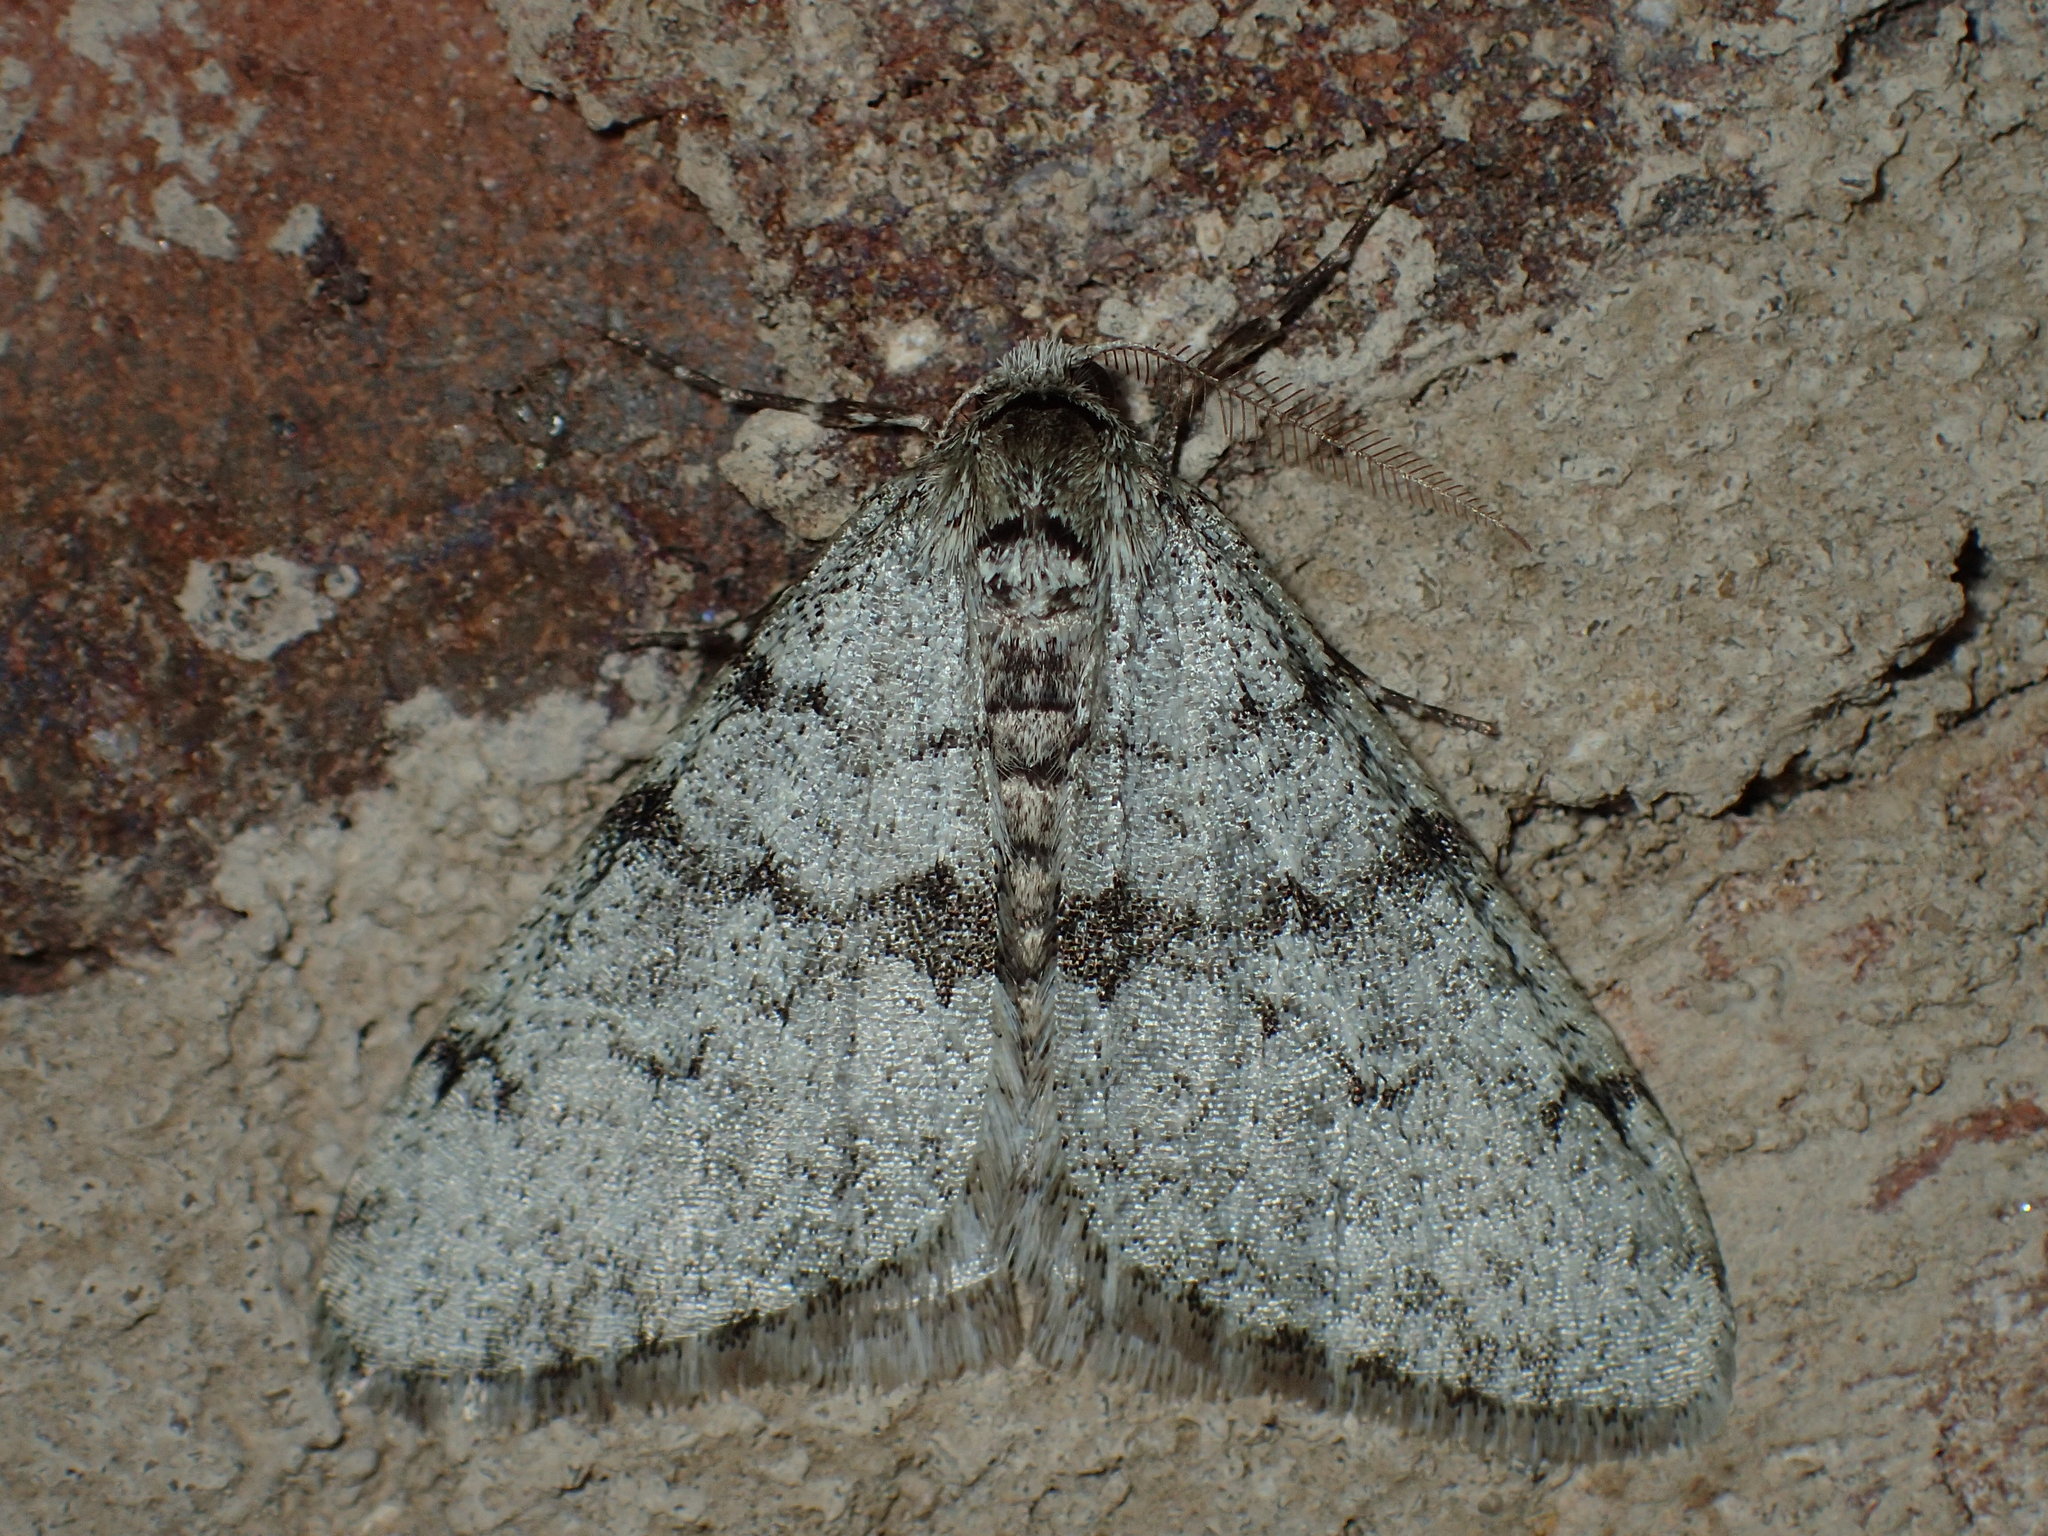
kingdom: Animalia
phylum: Arthropoda
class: Insecta
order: Lepidoptera
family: Geometridae
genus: Phigalia
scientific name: Phigalia strigataria
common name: Small phigalia
